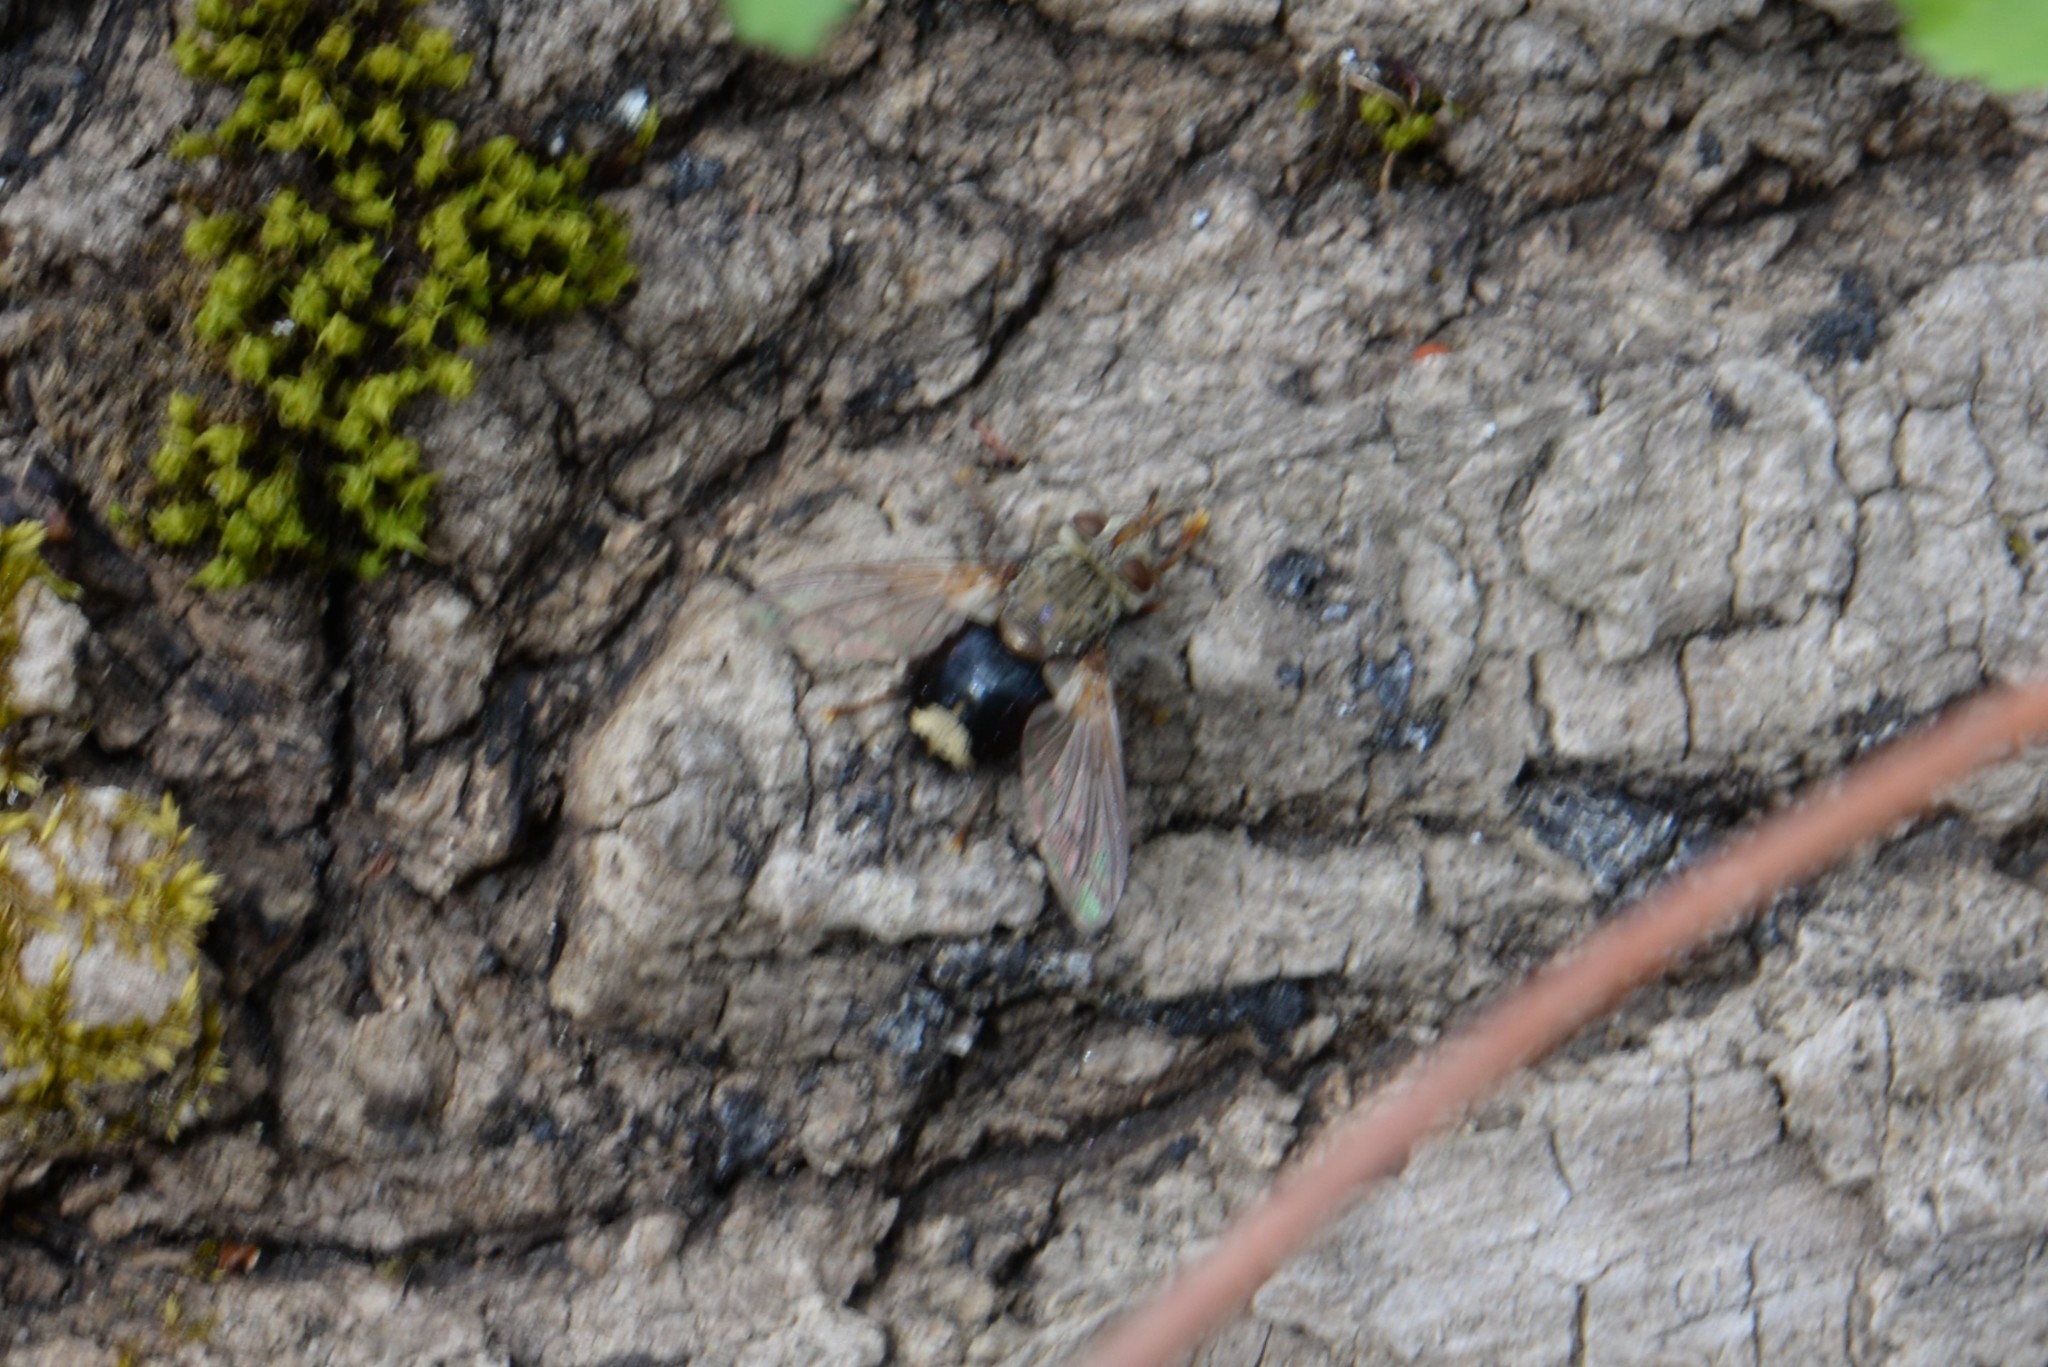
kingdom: Animalia
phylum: Arthropoda
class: Insecta
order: Diptera
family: Tachinidae
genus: Epalpus
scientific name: Epalpus signifer
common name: Early tachinid fly
